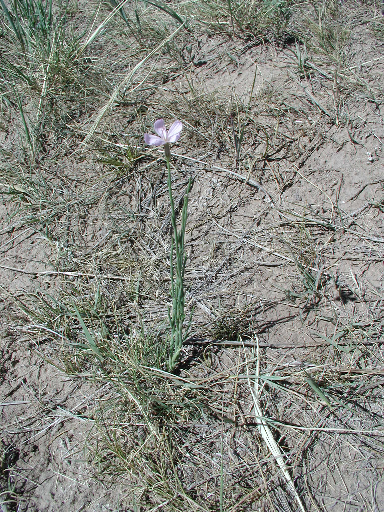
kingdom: Plantae
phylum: Tracheophyta
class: Magnoliopsida
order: Asterales
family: Asteraceae
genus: Lygodesmia
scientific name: Lygodesmia juncea
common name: Common skeletonweed
